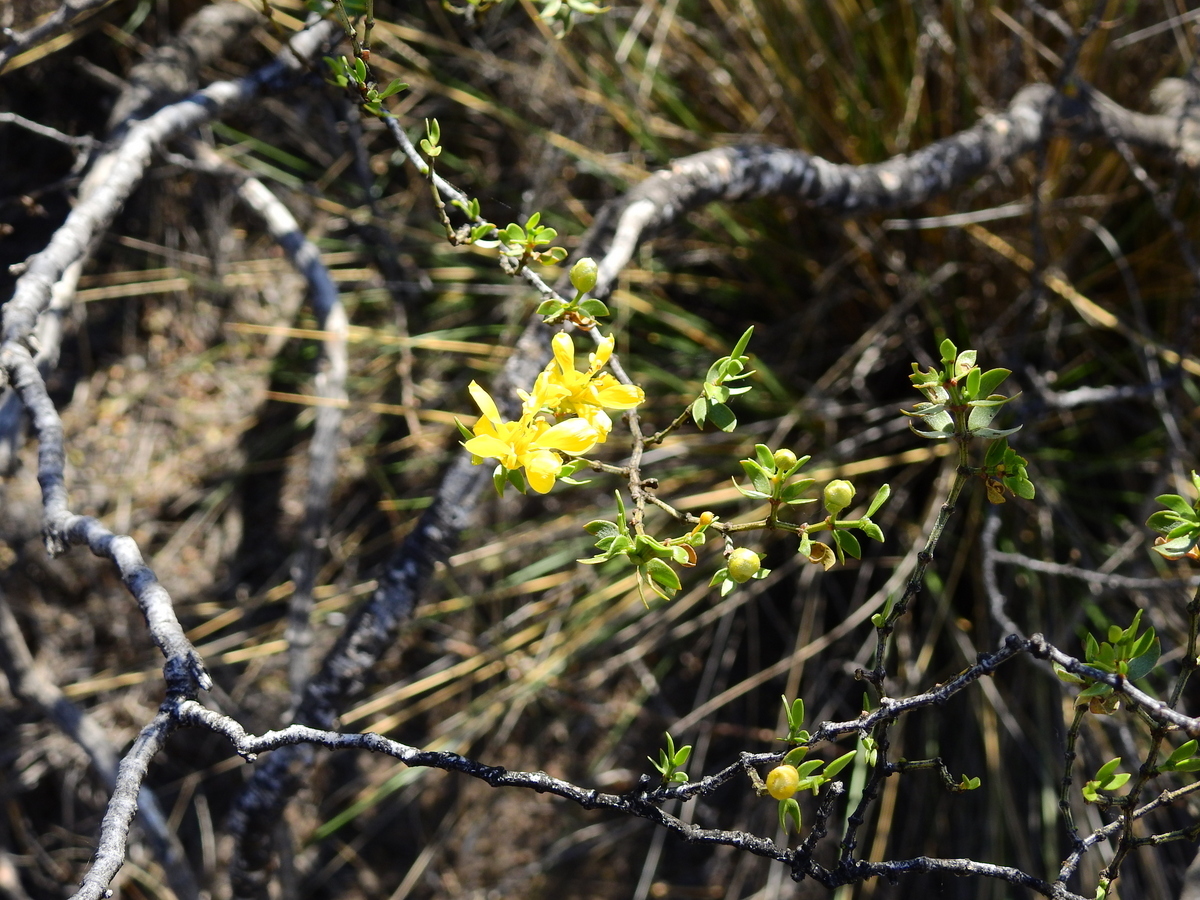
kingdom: Plantae
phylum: Tracheophyta
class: Magnoliopsida
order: Zygophyllales
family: Zygophyllaceae
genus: Larrea
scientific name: Larrea divaricata
